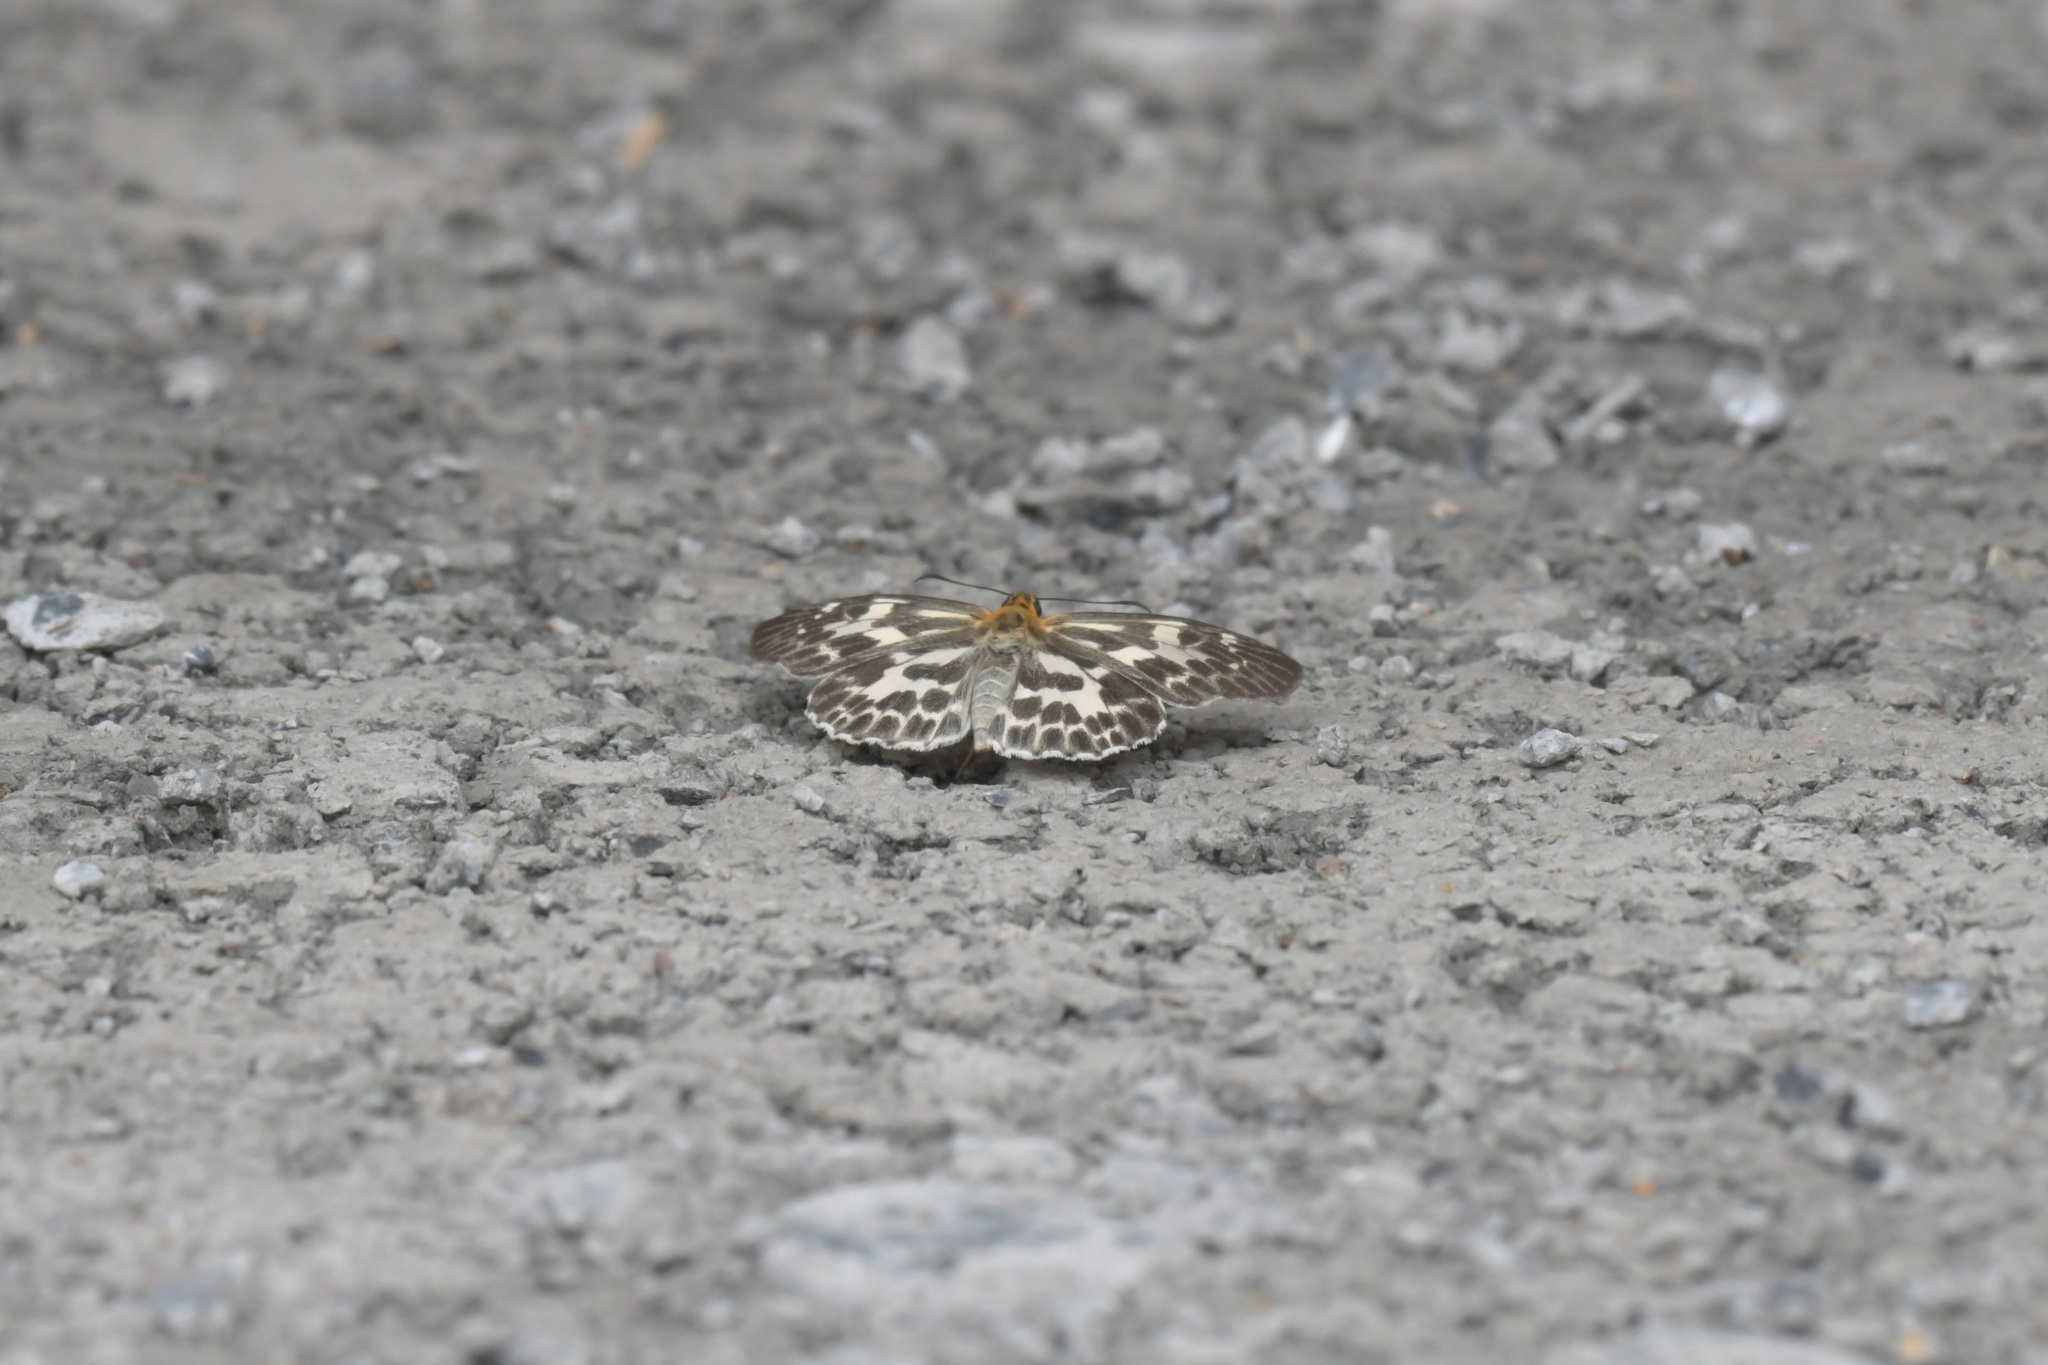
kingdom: Animalia
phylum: Arthropoda
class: Insecta
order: Lepidoptera
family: Hesperiidae
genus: Abraximorpha
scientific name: Abraximorpha davidii
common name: Magpie flat
